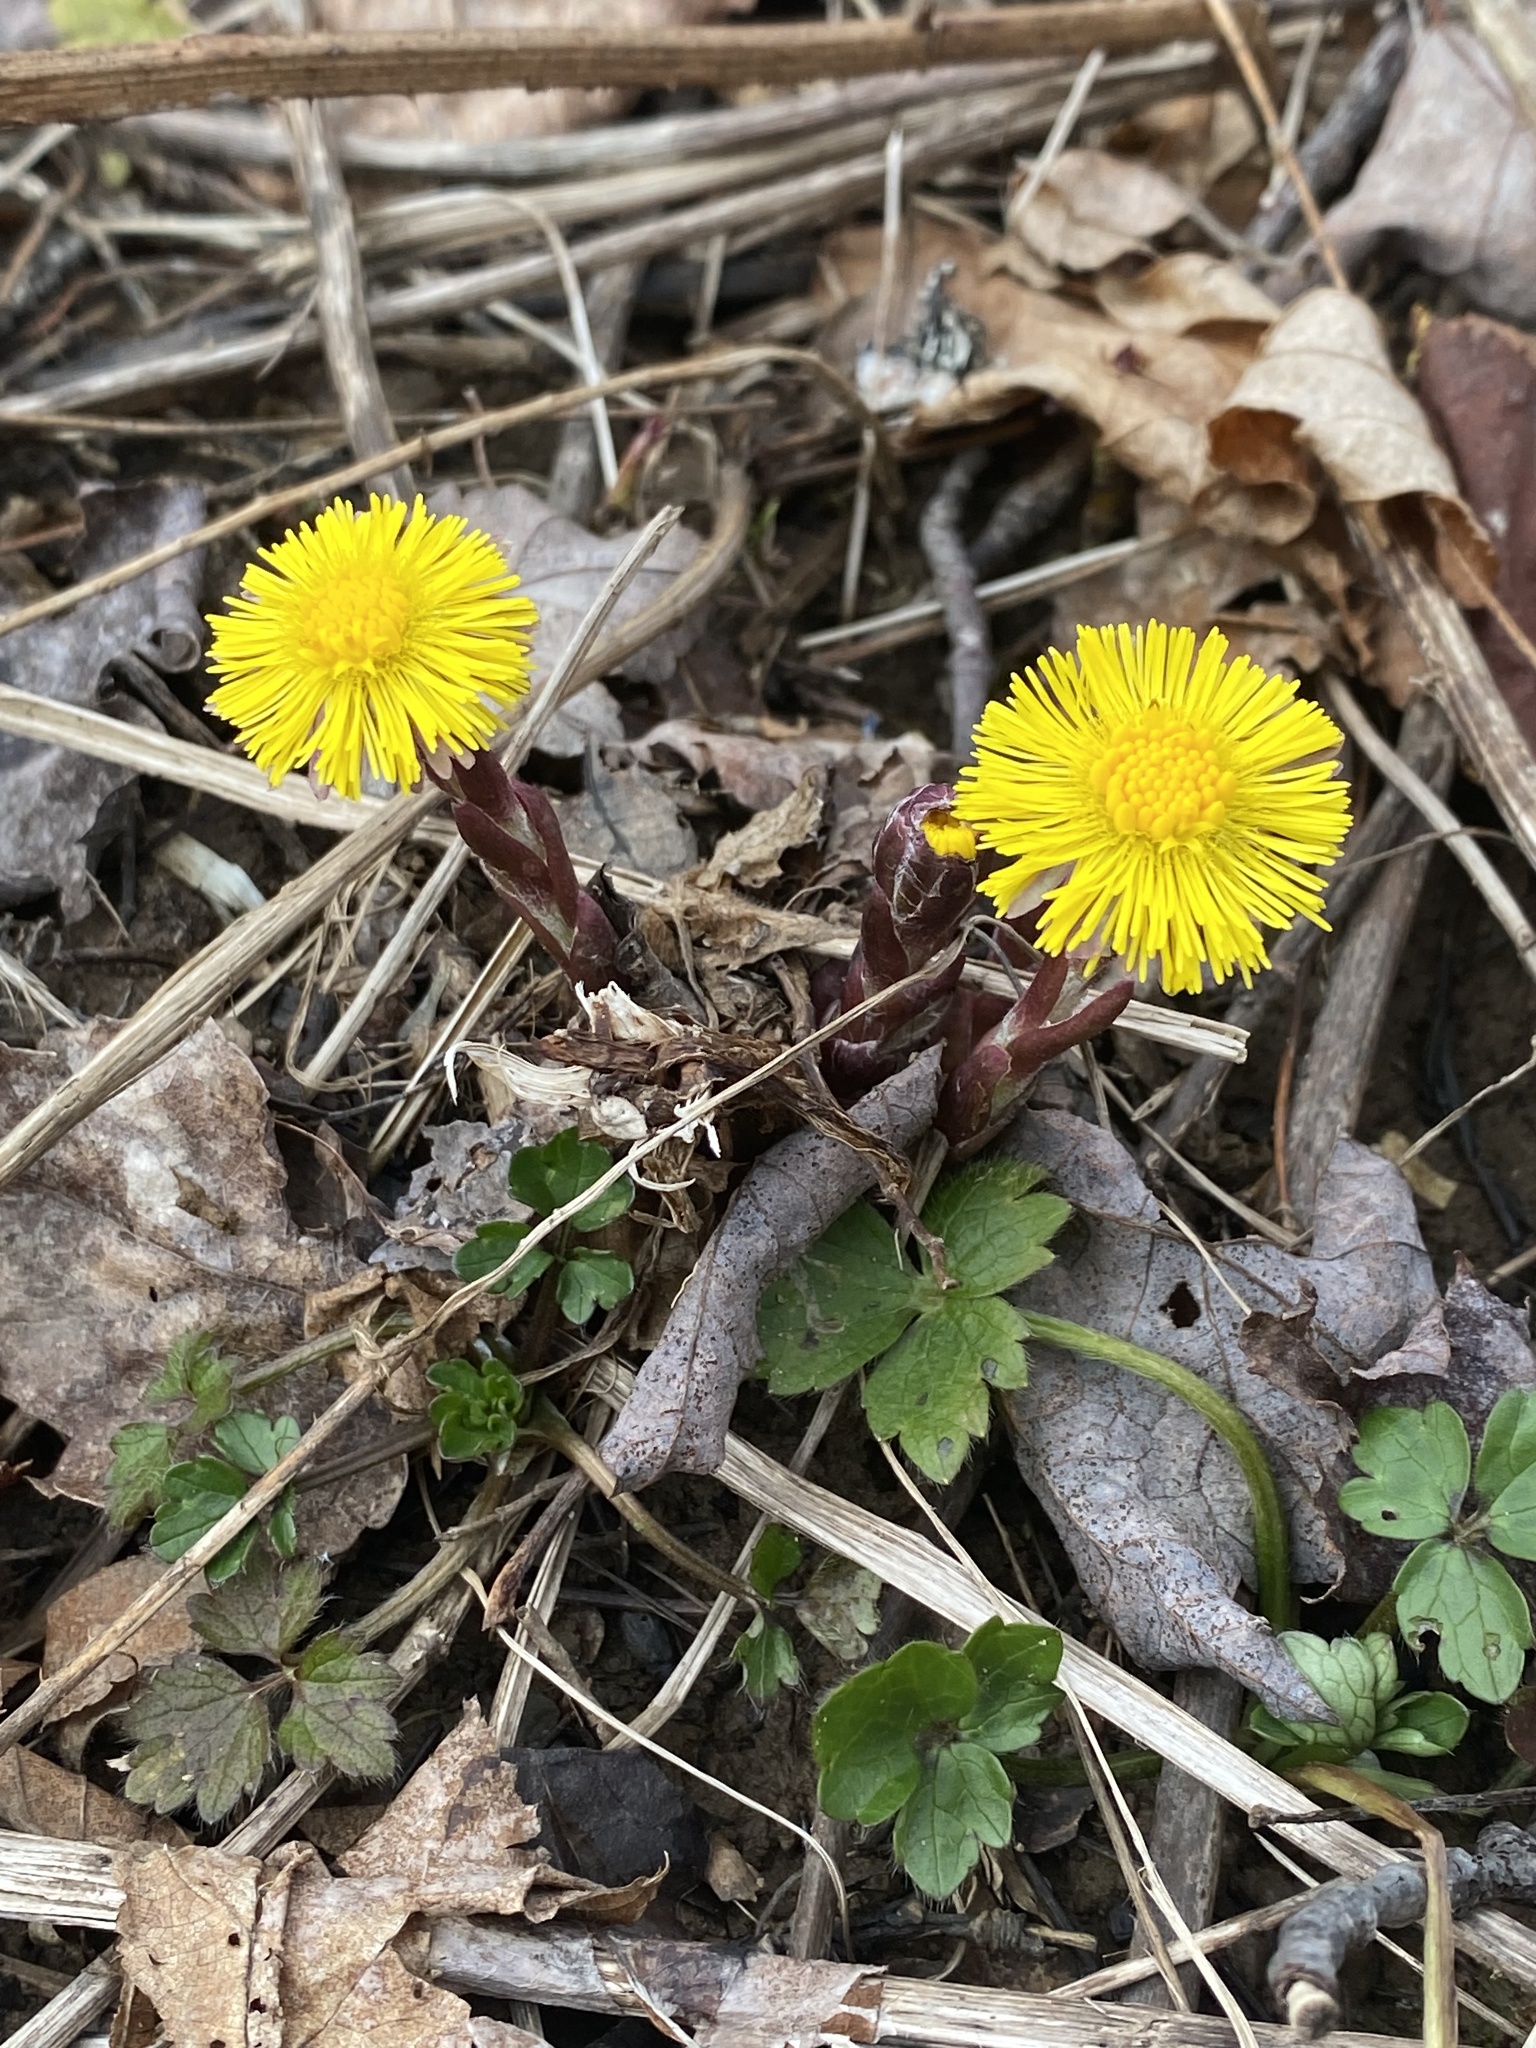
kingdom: Plantae
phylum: Tracheophyta
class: Magnoliopsida
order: Asterales
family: Asteraceae
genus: Tussilago
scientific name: Tussilago farfara
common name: Coltsfoot
